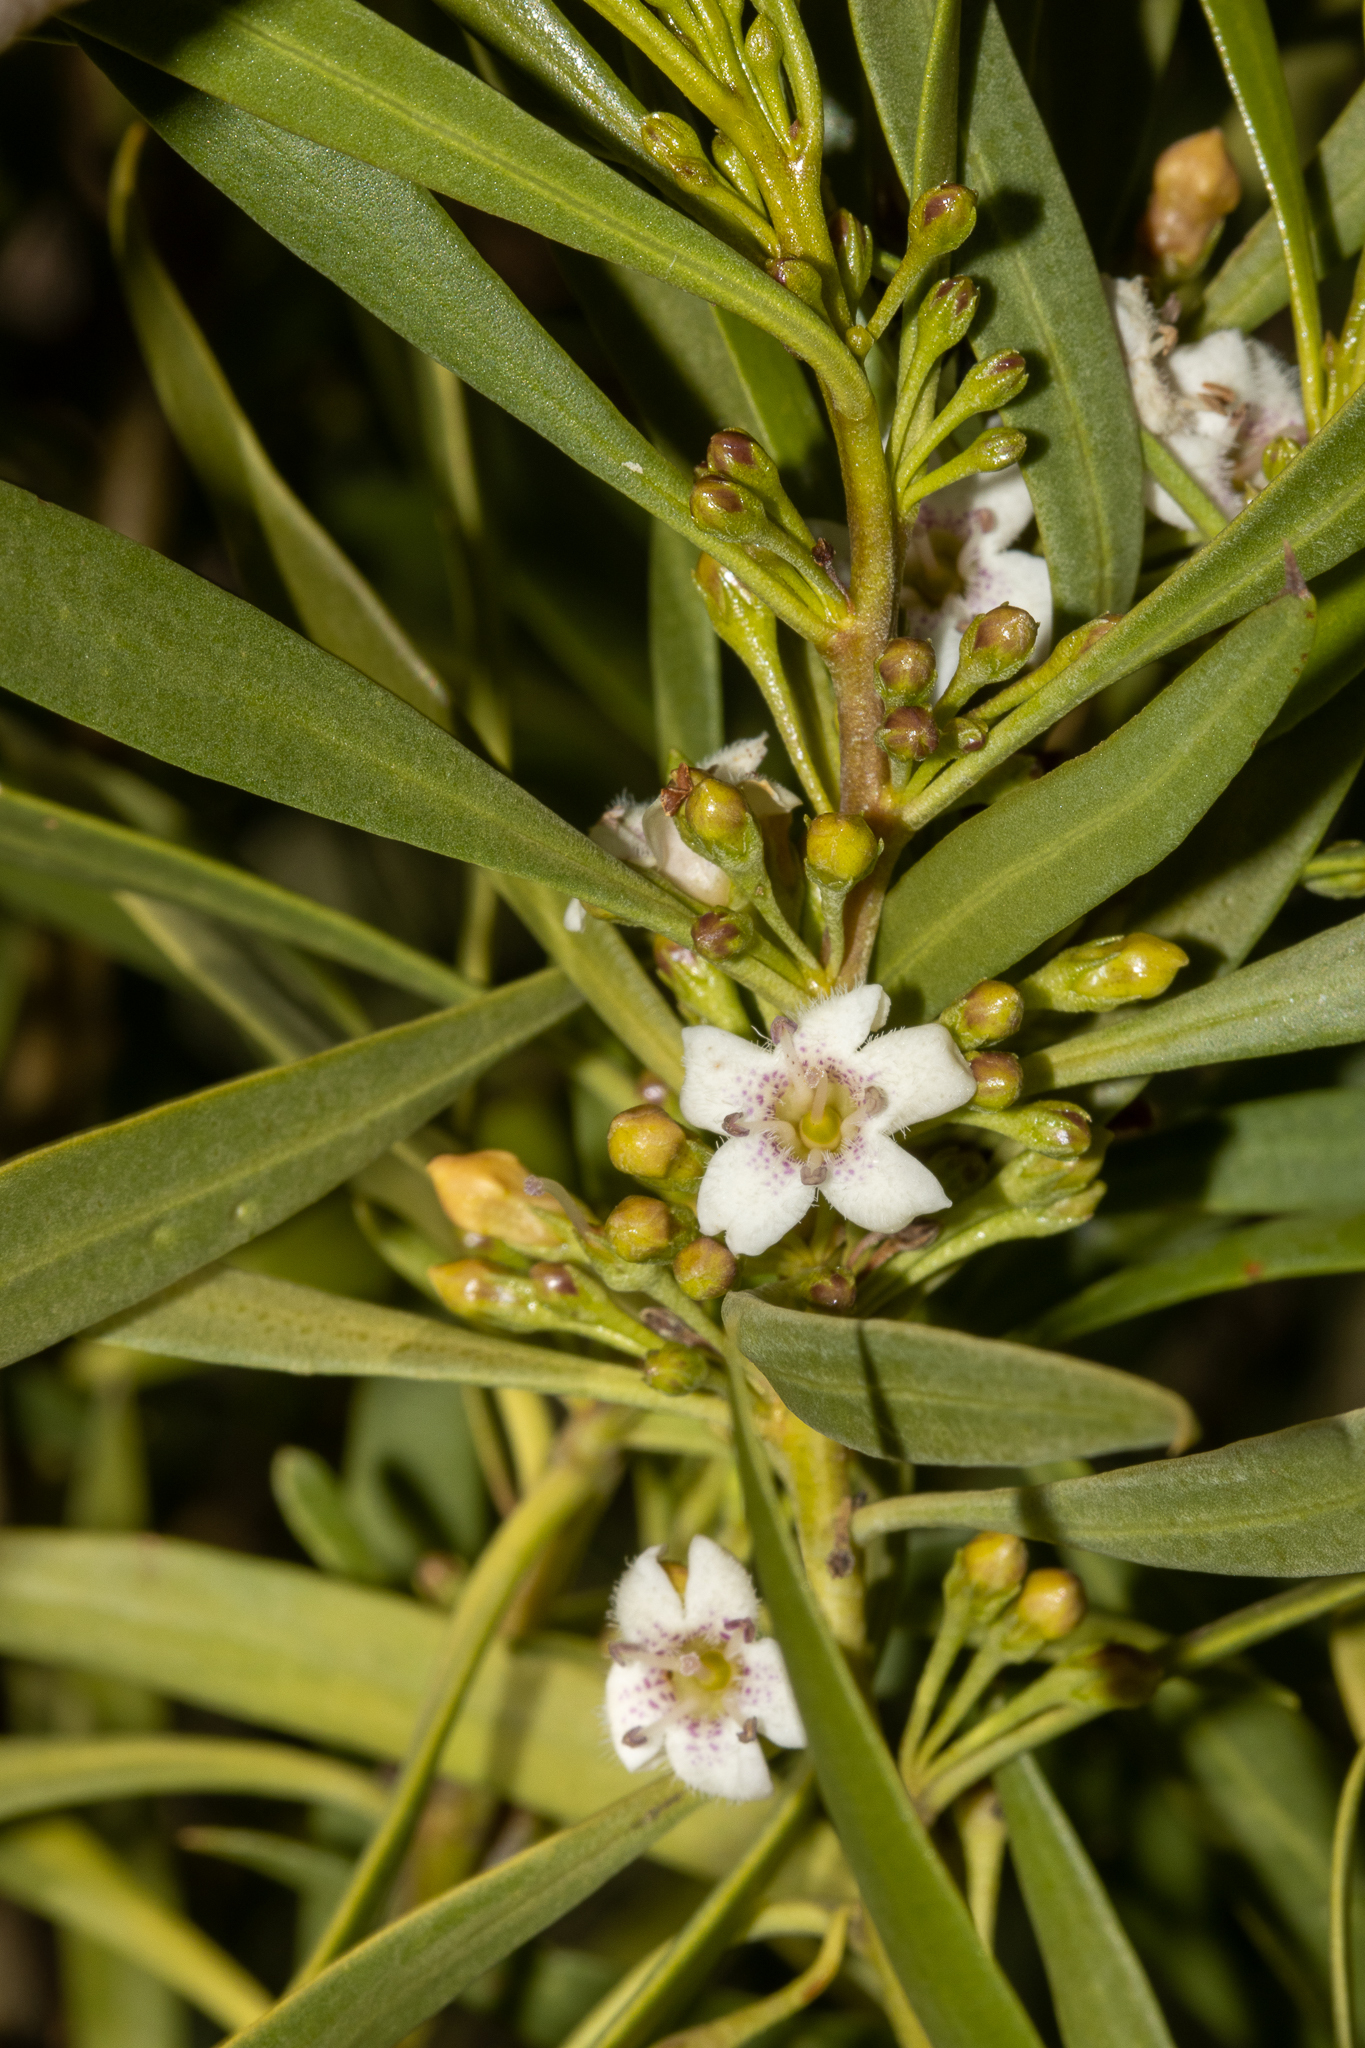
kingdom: Plantae
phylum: Tracheophyta
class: Magnoliopsida
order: Lamiales
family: Scrophulariaceae
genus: Myoporum
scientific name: Myoporum montanum
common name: Waterbush
